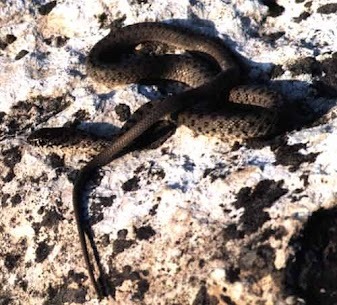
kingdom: Animalia
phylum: Chordata
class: Squamata
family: Colubridae
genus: Dolichophis
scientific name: Dolichophis schmidti
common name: Red-bellied racer
